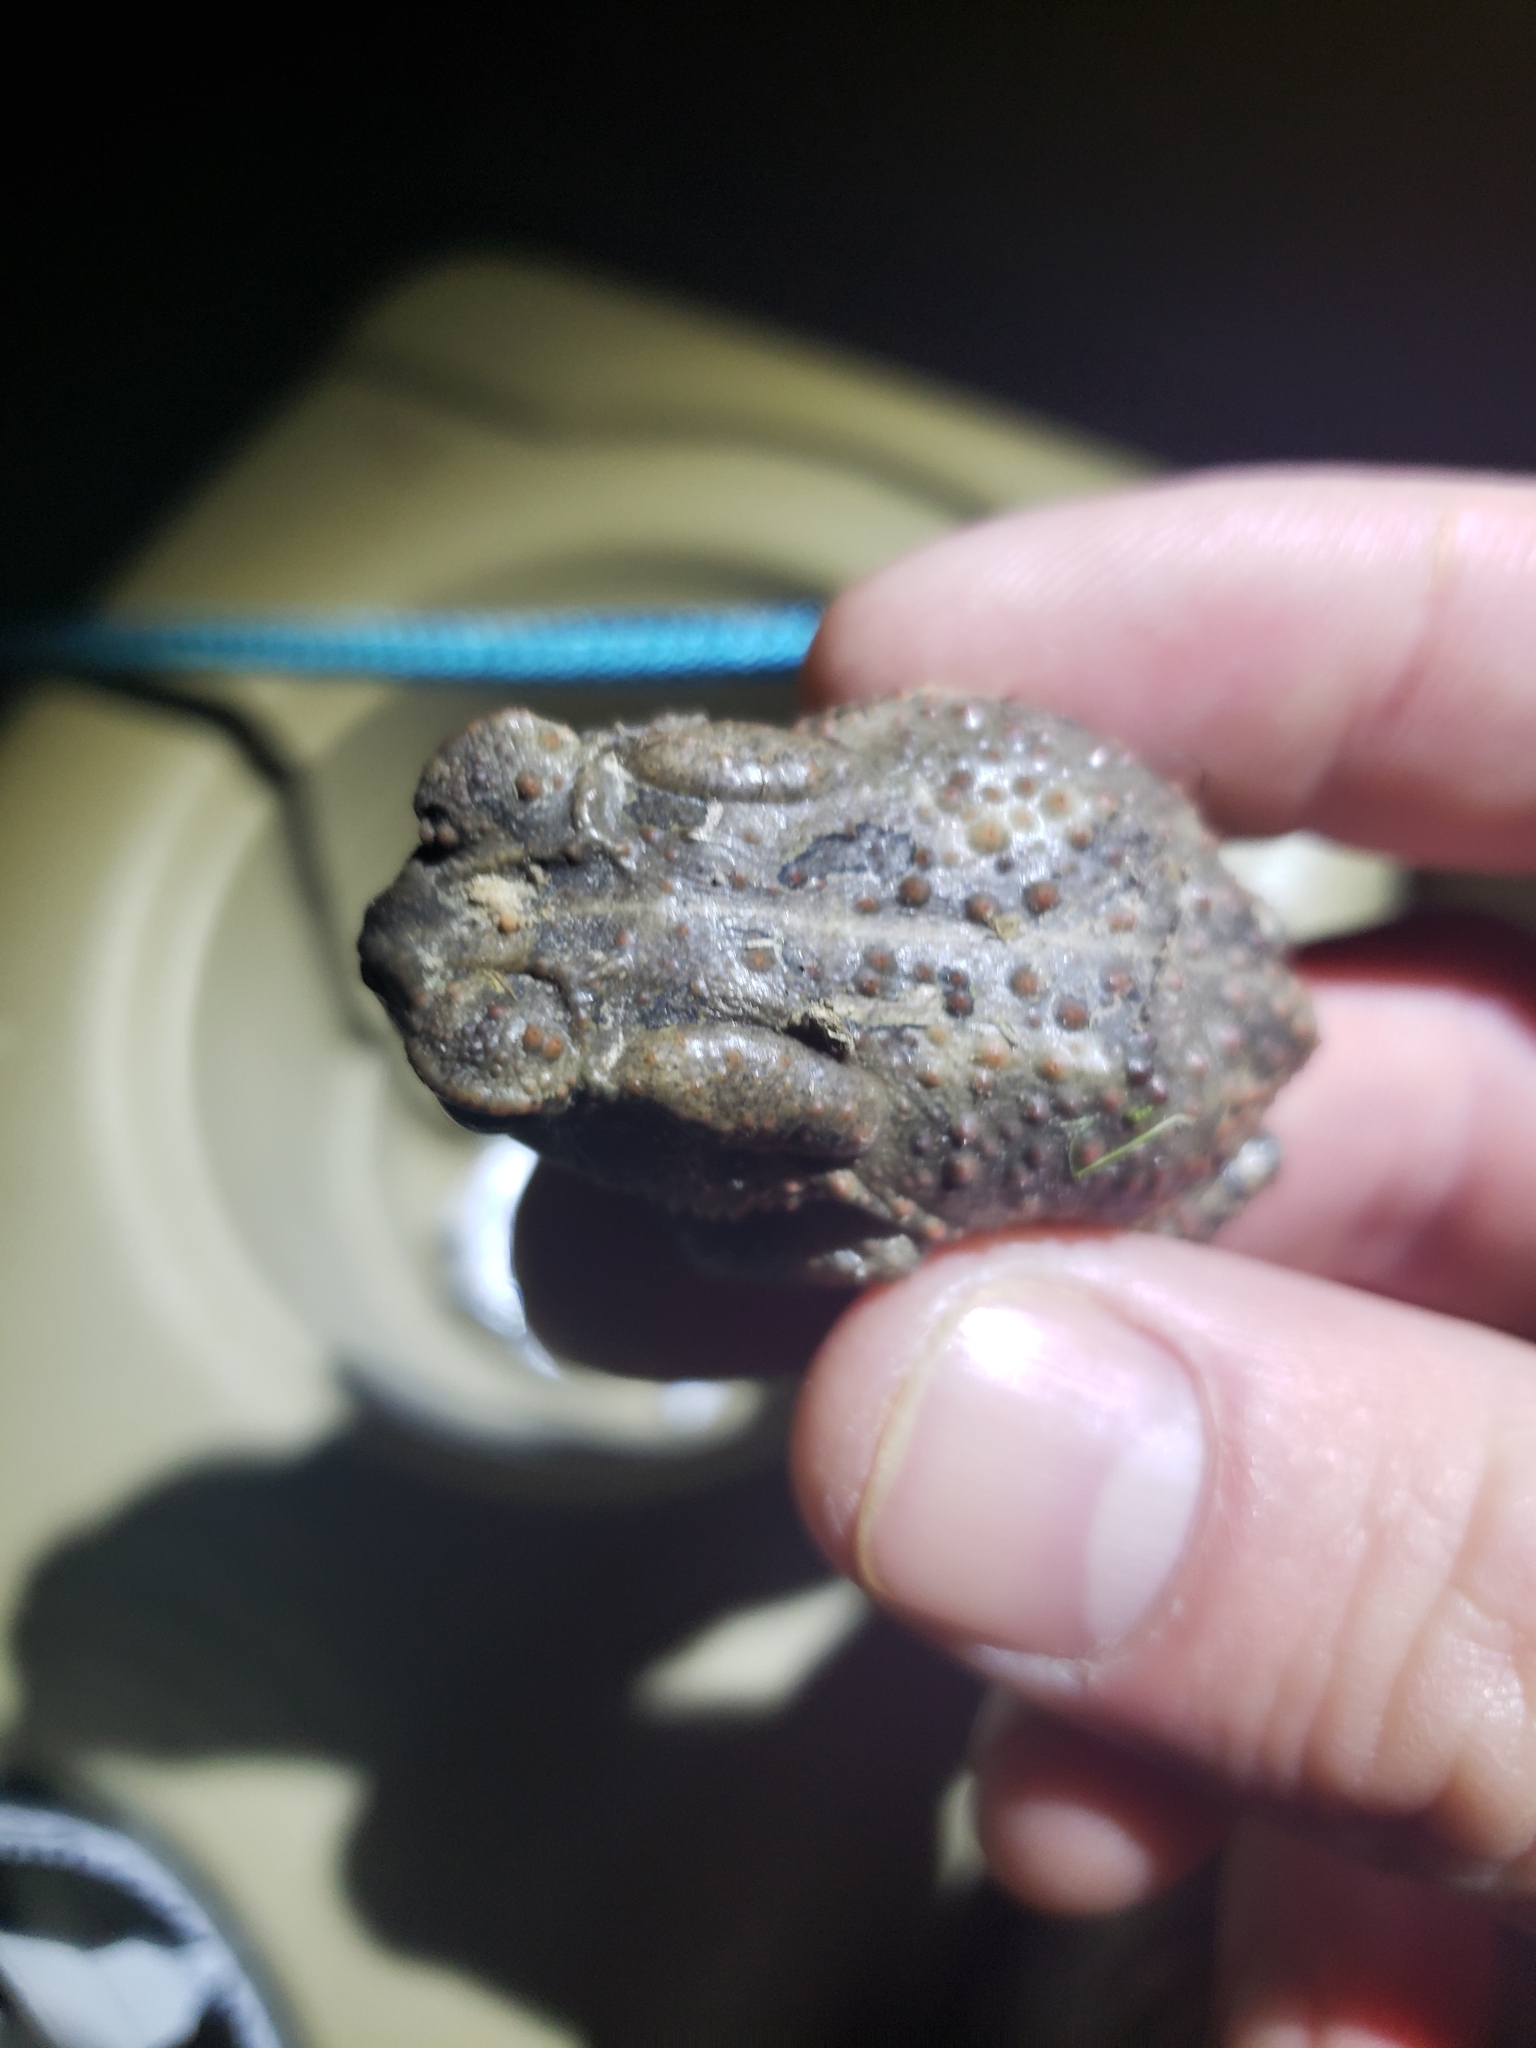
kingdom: Animalia
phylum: Chordata
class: Amphibia
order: Anura
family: Bufonidae
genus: Anaxyrus
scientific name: Anaxyrus americanus
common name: American toad
